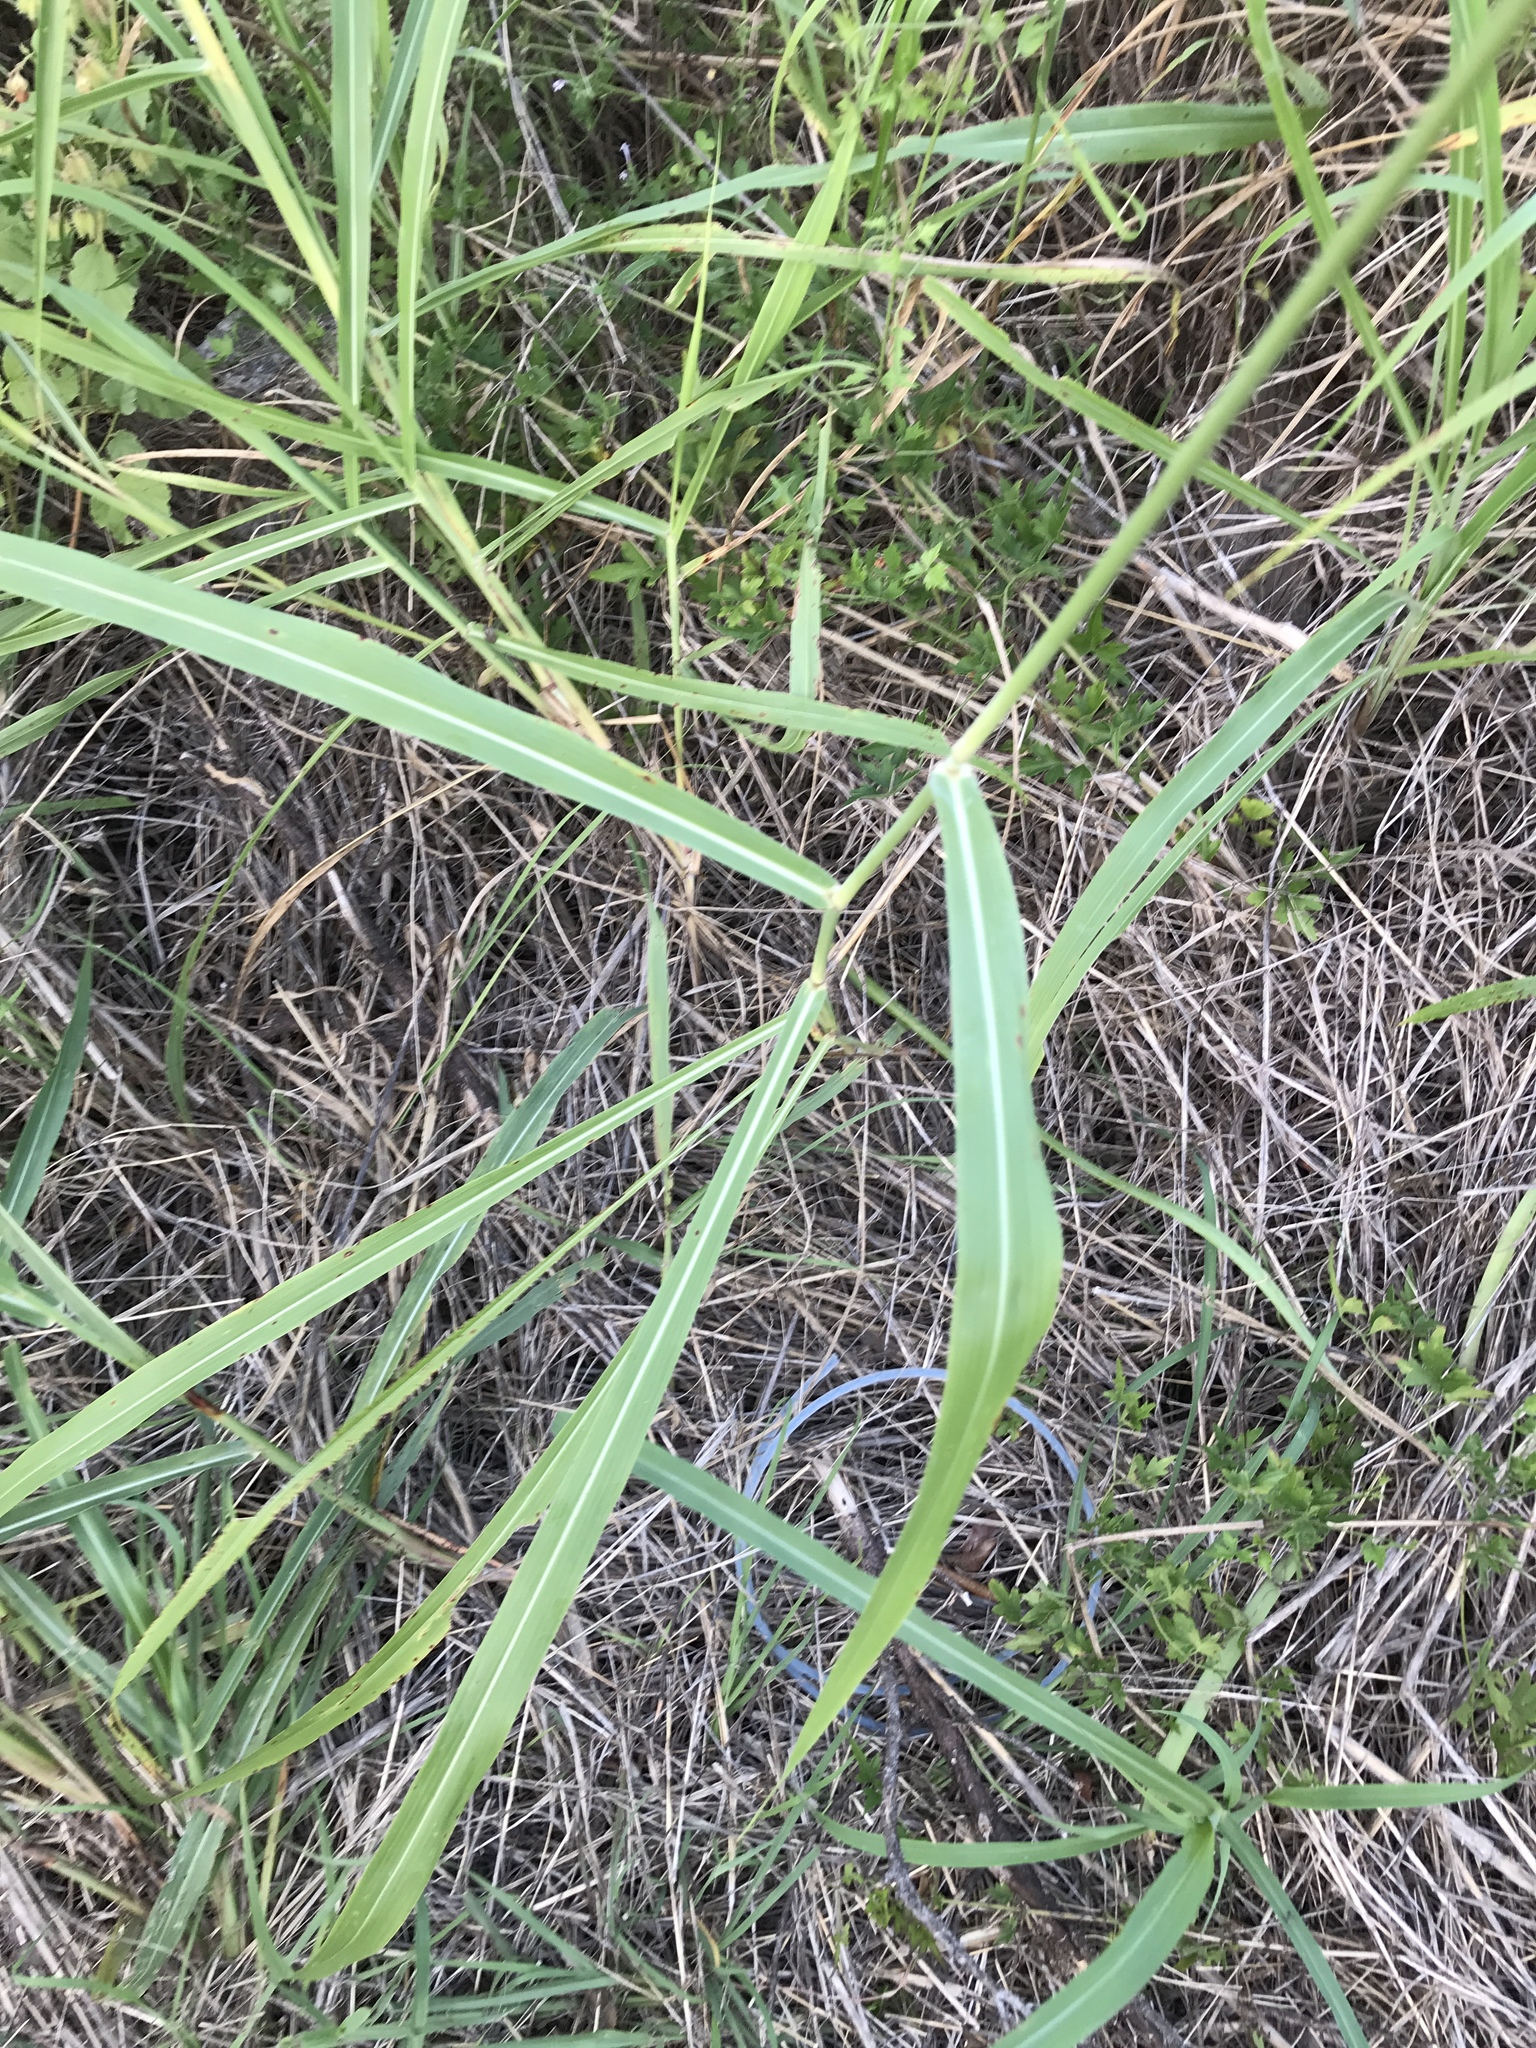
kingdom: Plantae
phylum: Tracheophyta
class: Liliopsida
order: Poales
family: Poaceae
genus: Sorghum
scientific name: Sorghum halepense
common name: Johnson-grass
